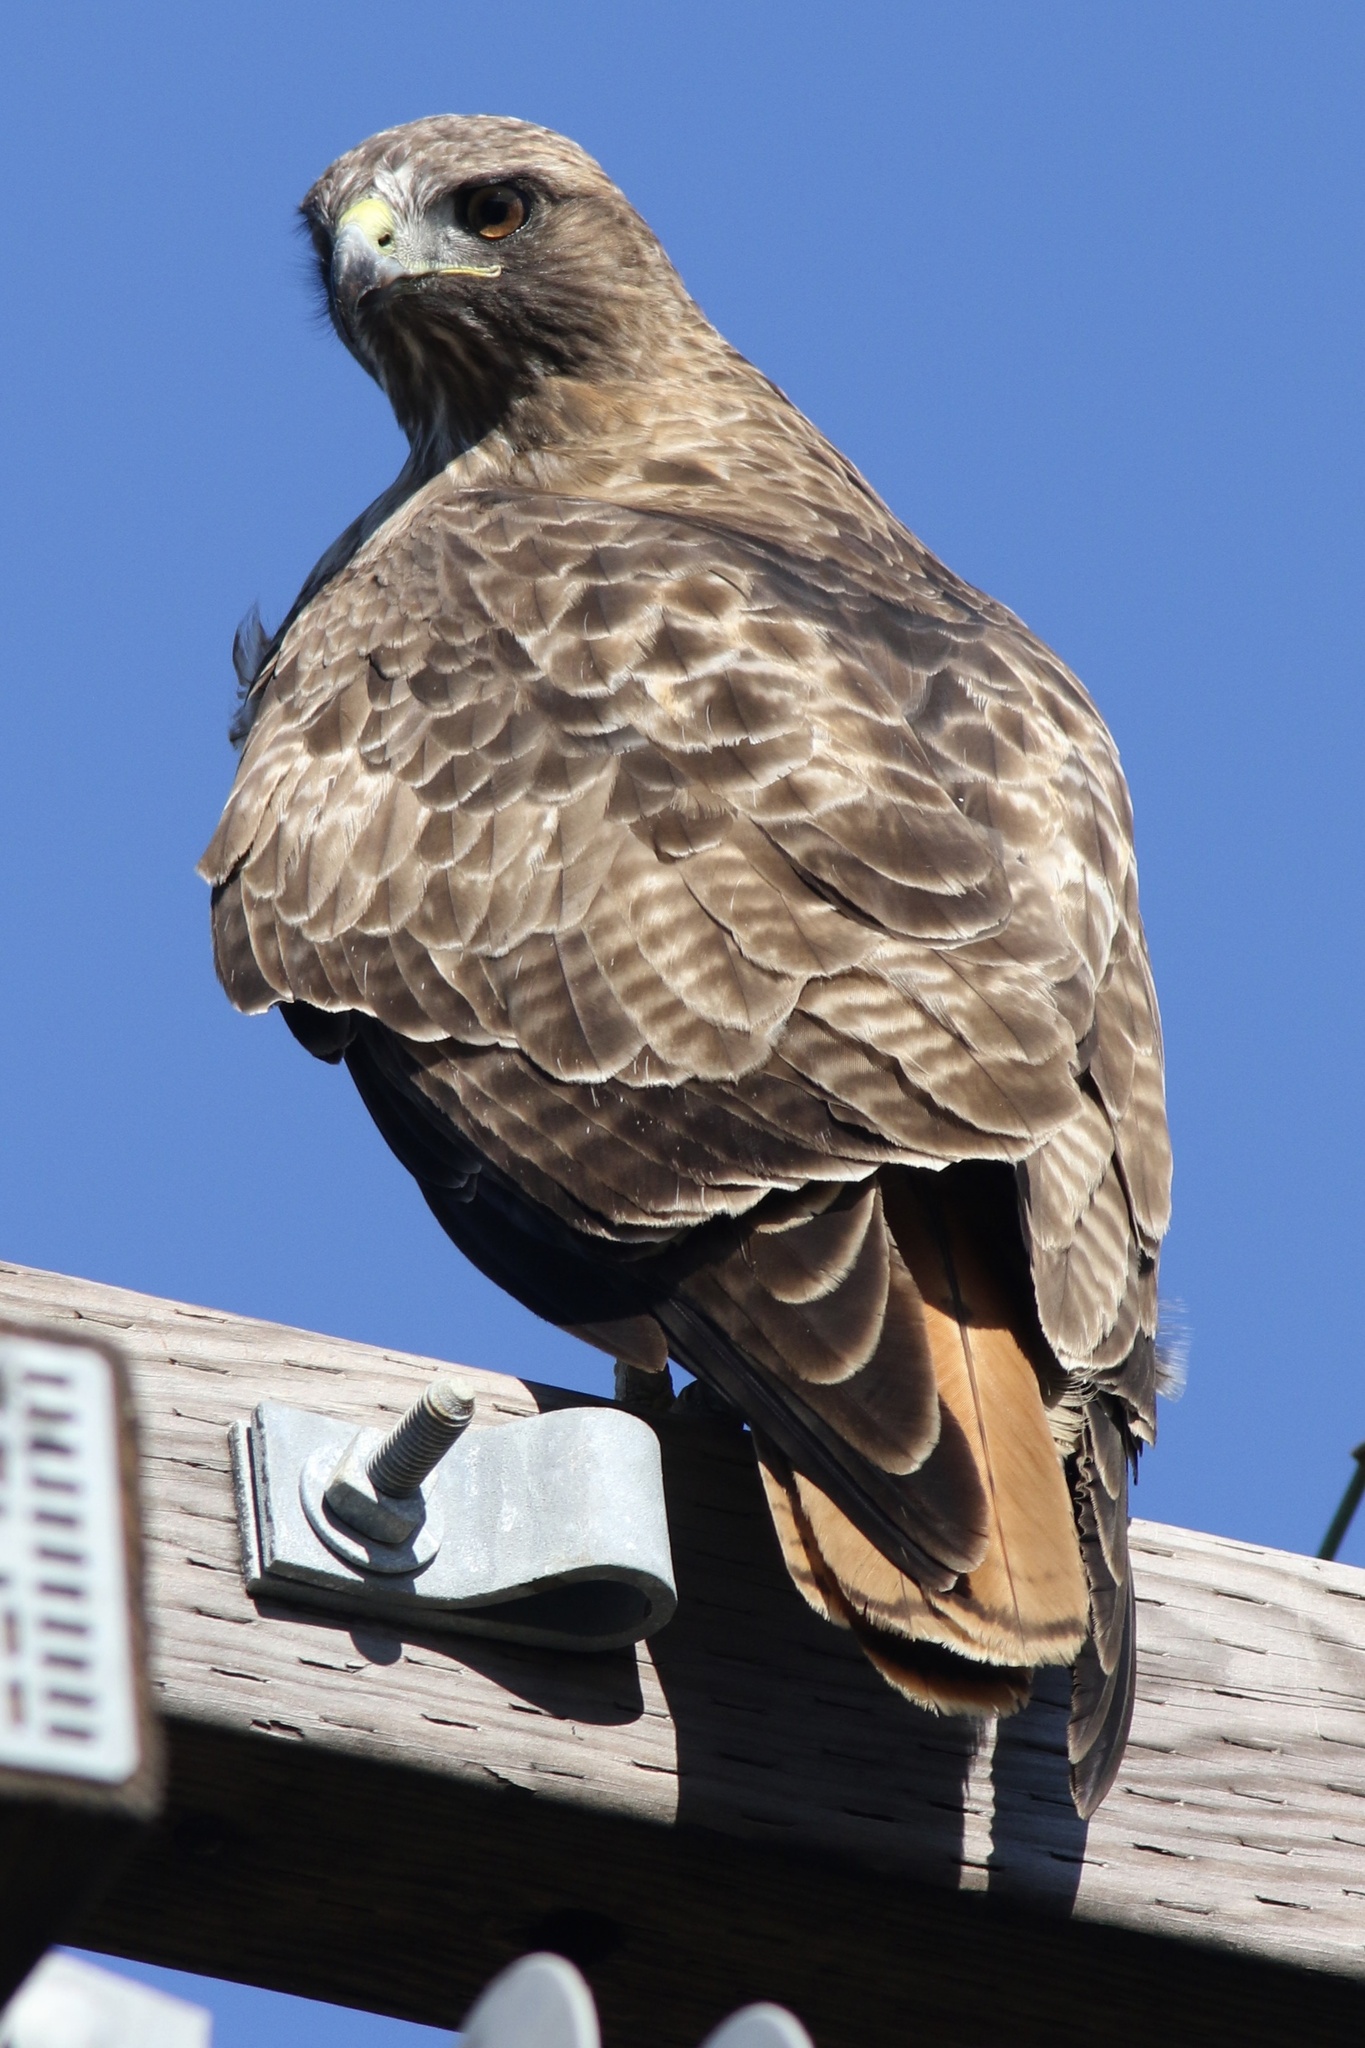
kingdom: Animalia
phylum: Chordata
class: Aves
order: Accipitriformes
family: Accipitridae
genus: Buteo
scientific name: Buteo jamaicensis
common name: Red-tailed hawk
